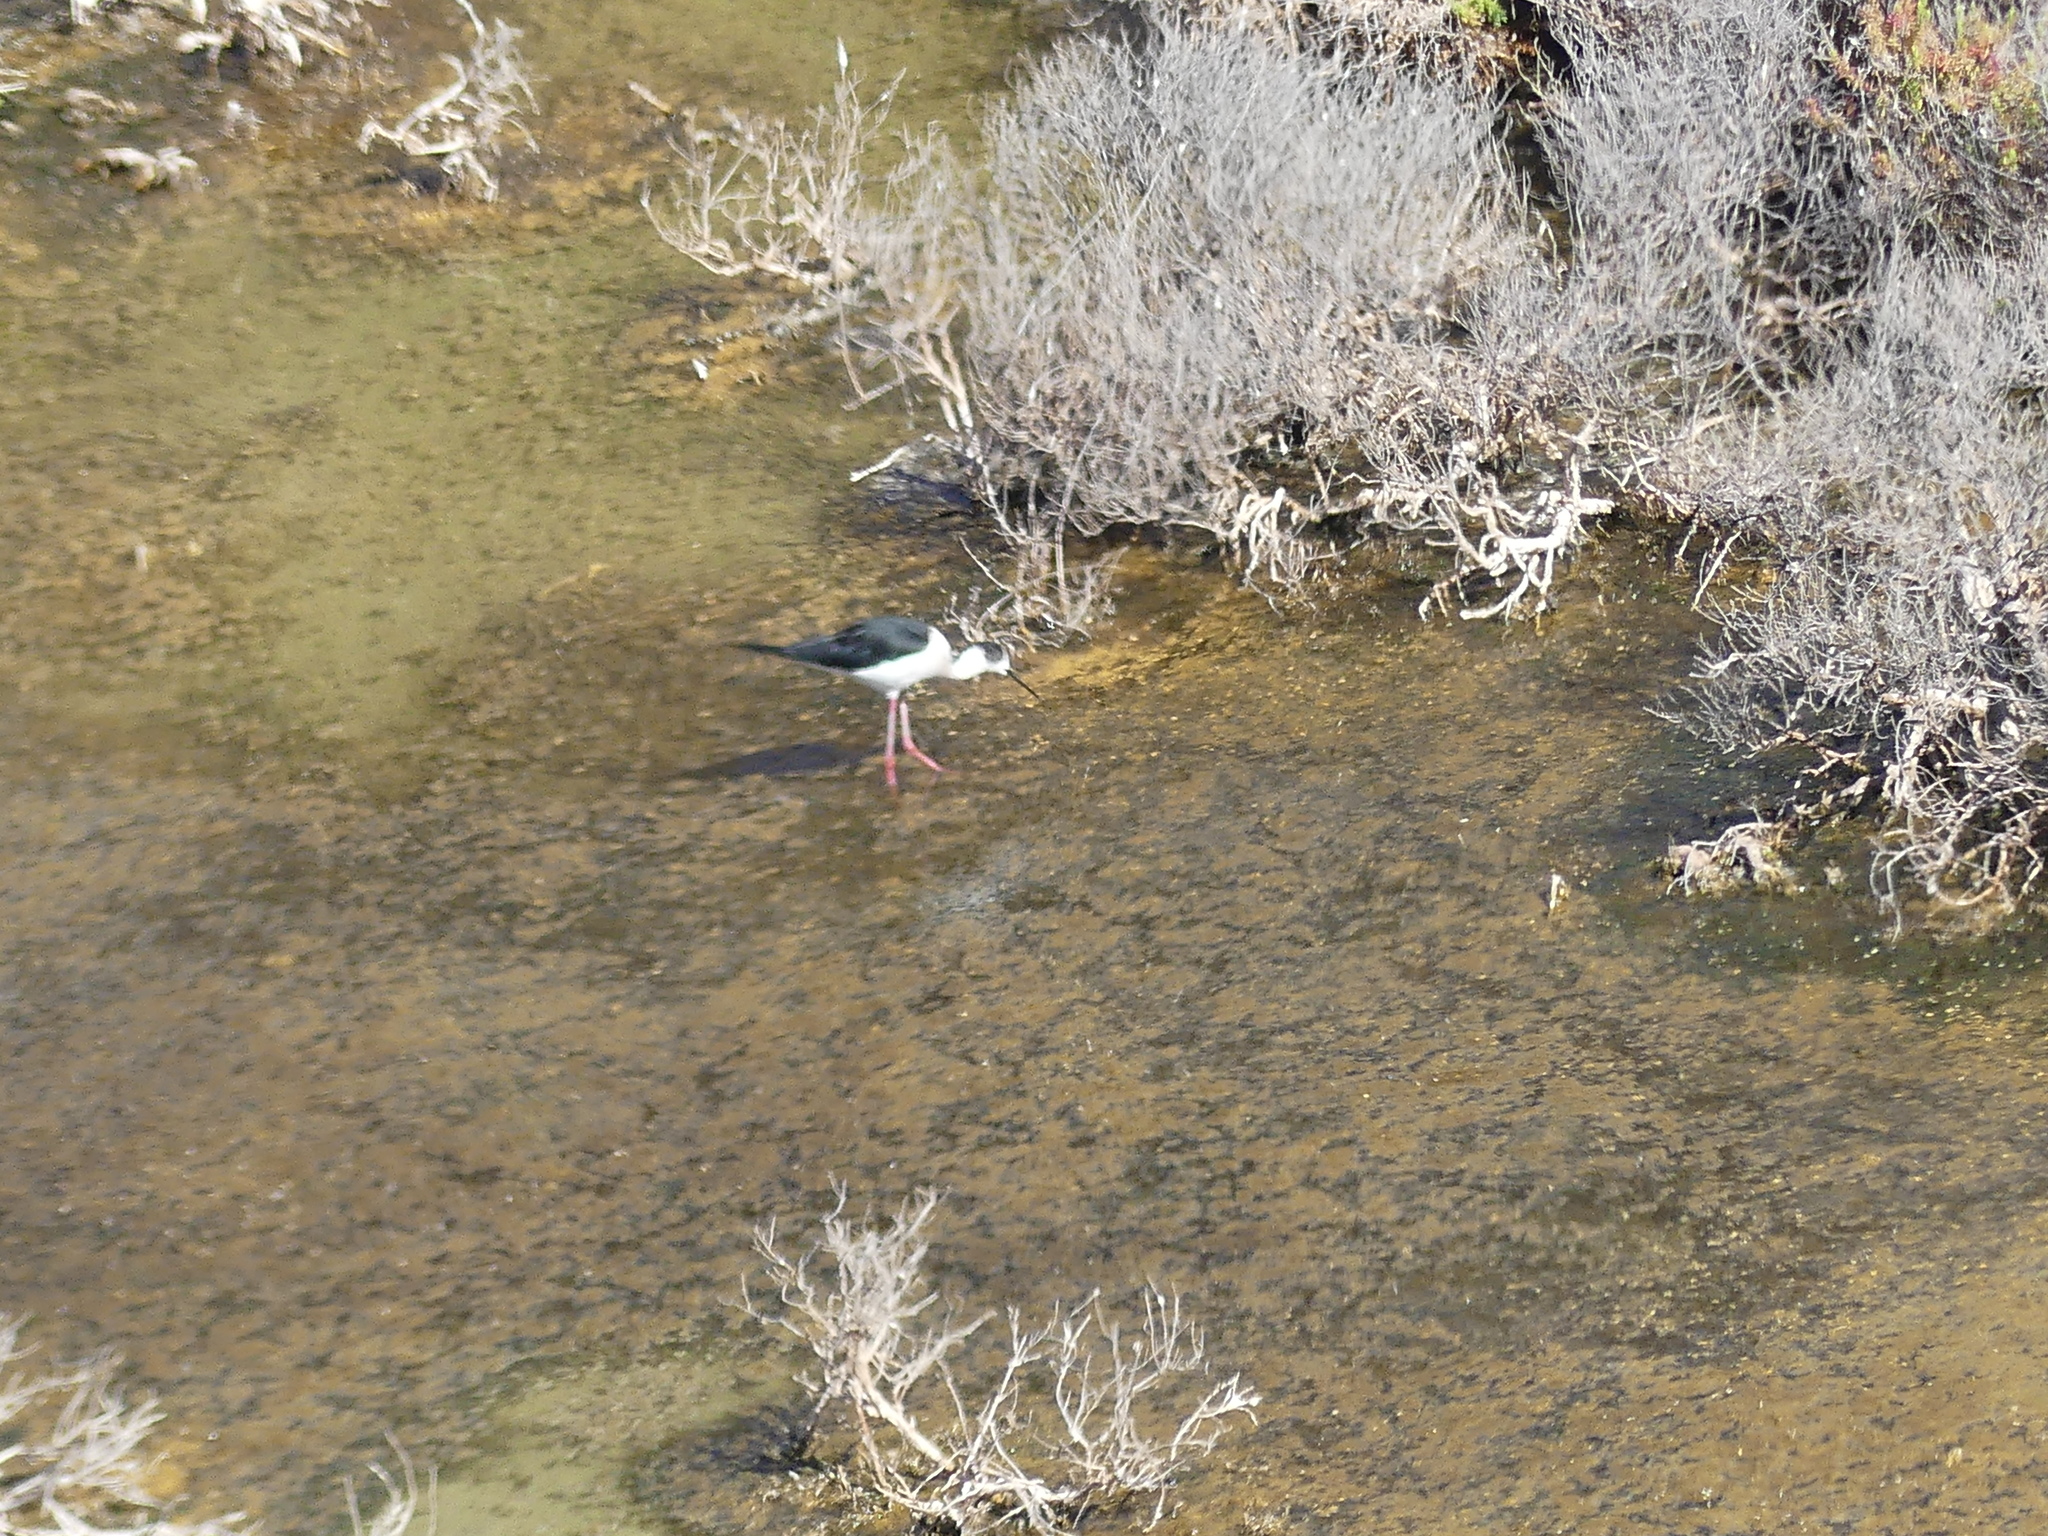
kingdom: Animalia
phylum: Chordata
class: Aves
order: Charadriiformes
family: Recurvirostridae
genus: Himantopus
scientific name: Himantopus himantopus
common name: Black-winged stilt
